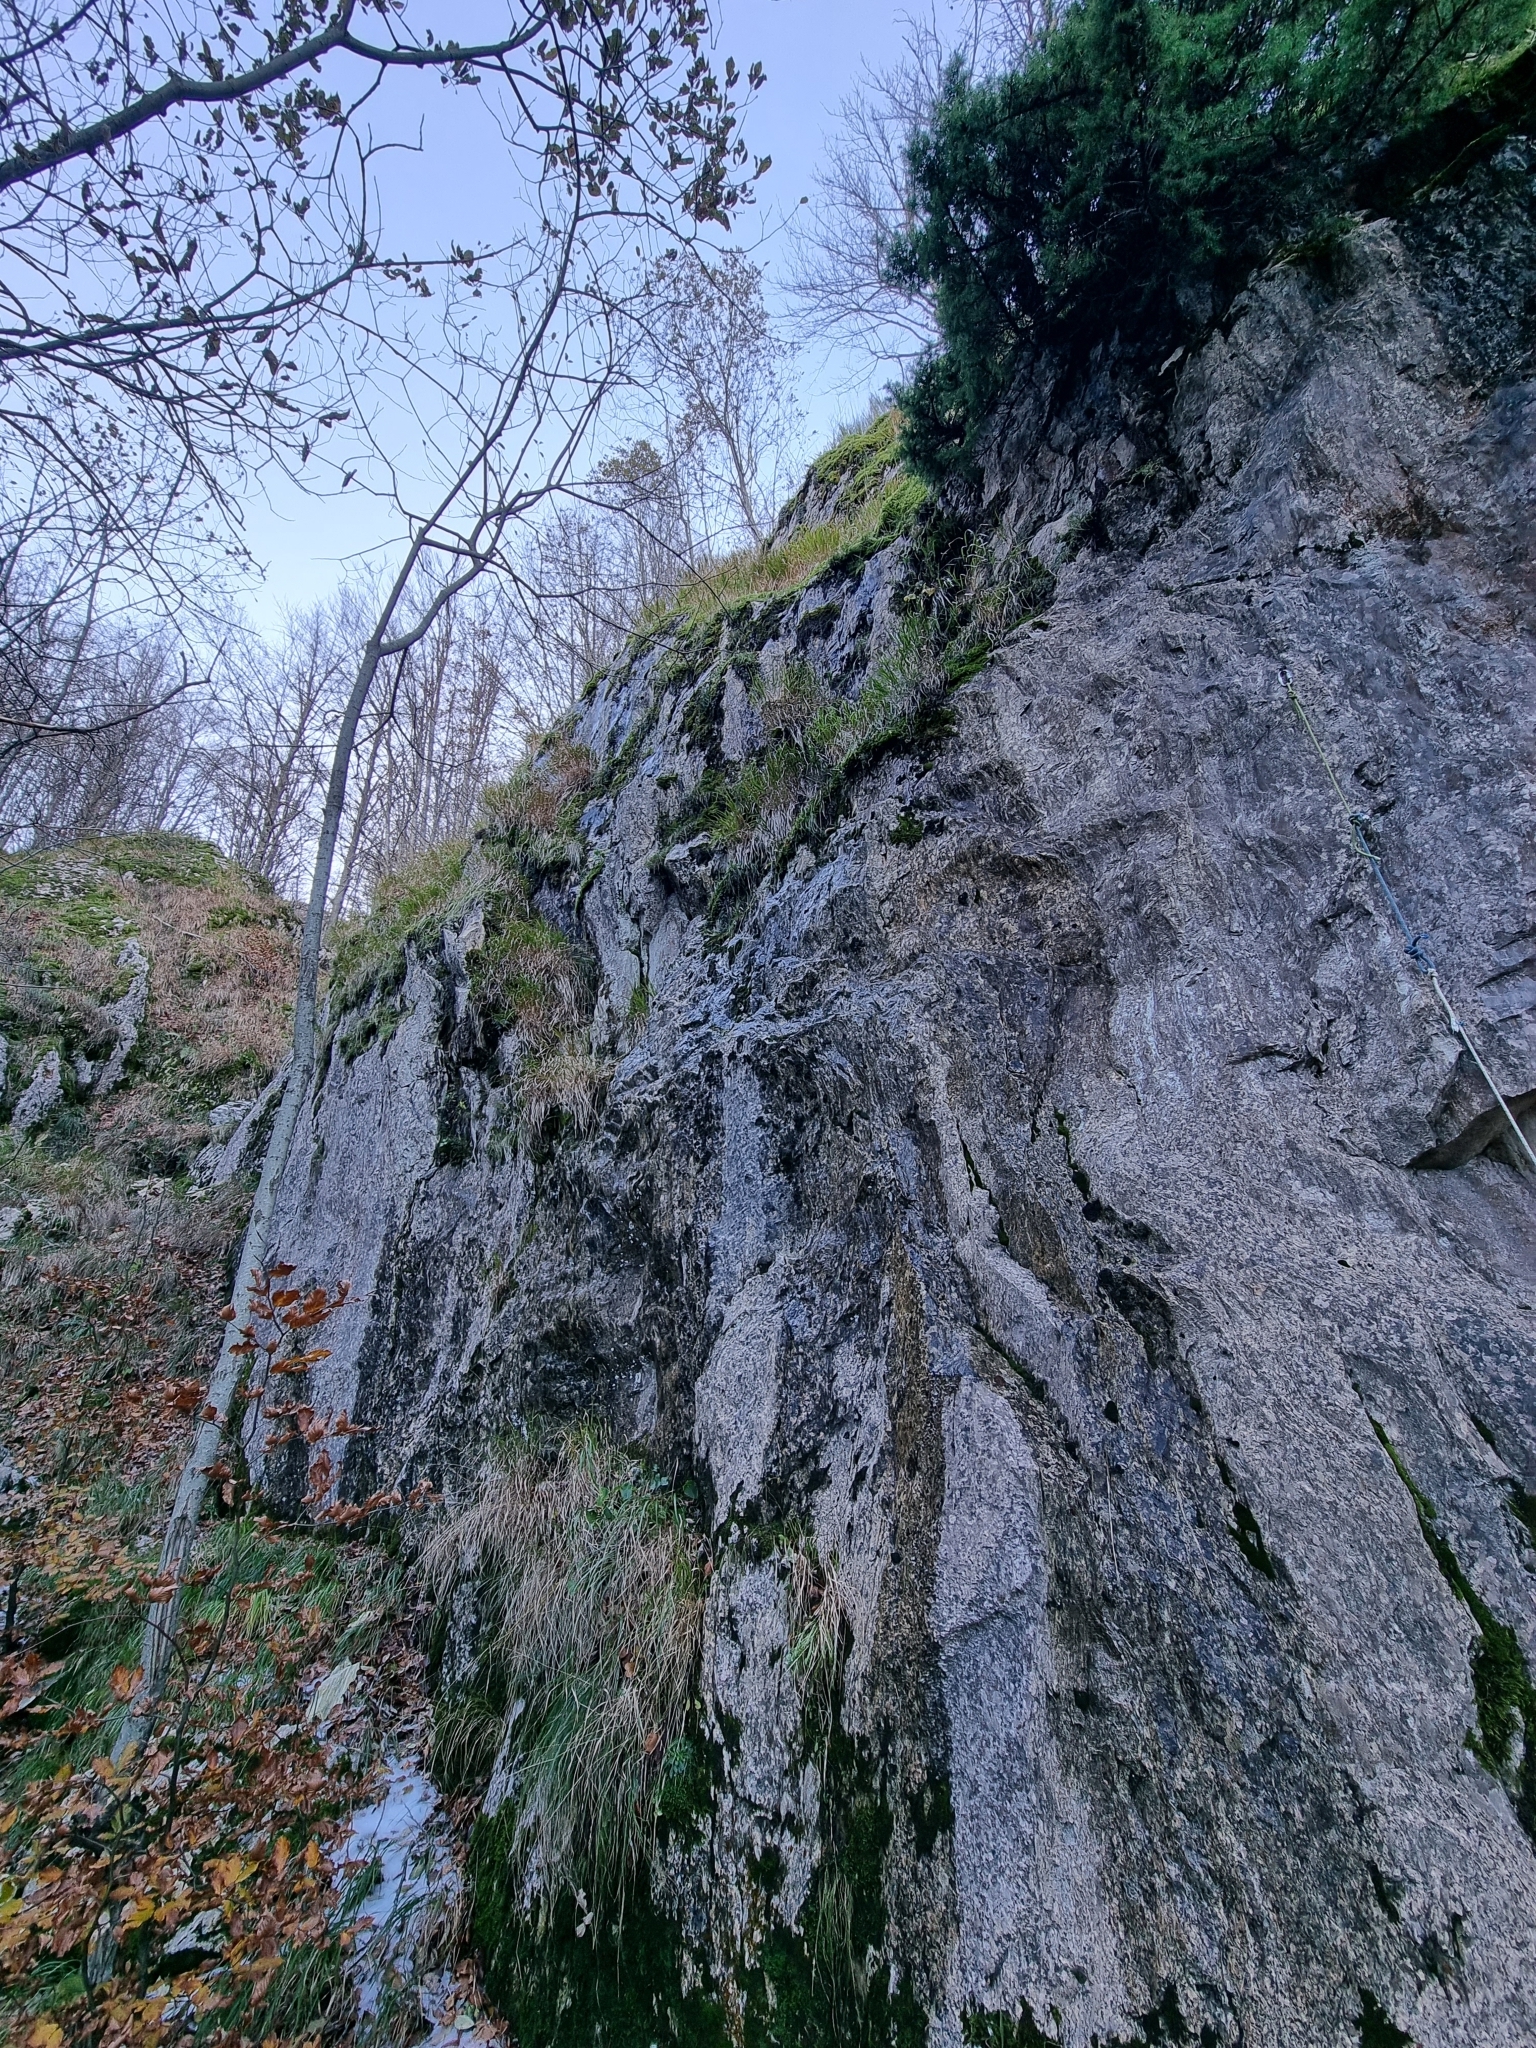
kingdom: Animalia
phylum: Chordata
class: Aves
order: Strigiformes
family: Strigidae
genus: Strix
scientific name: Strix aluco
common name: Tawny owl
